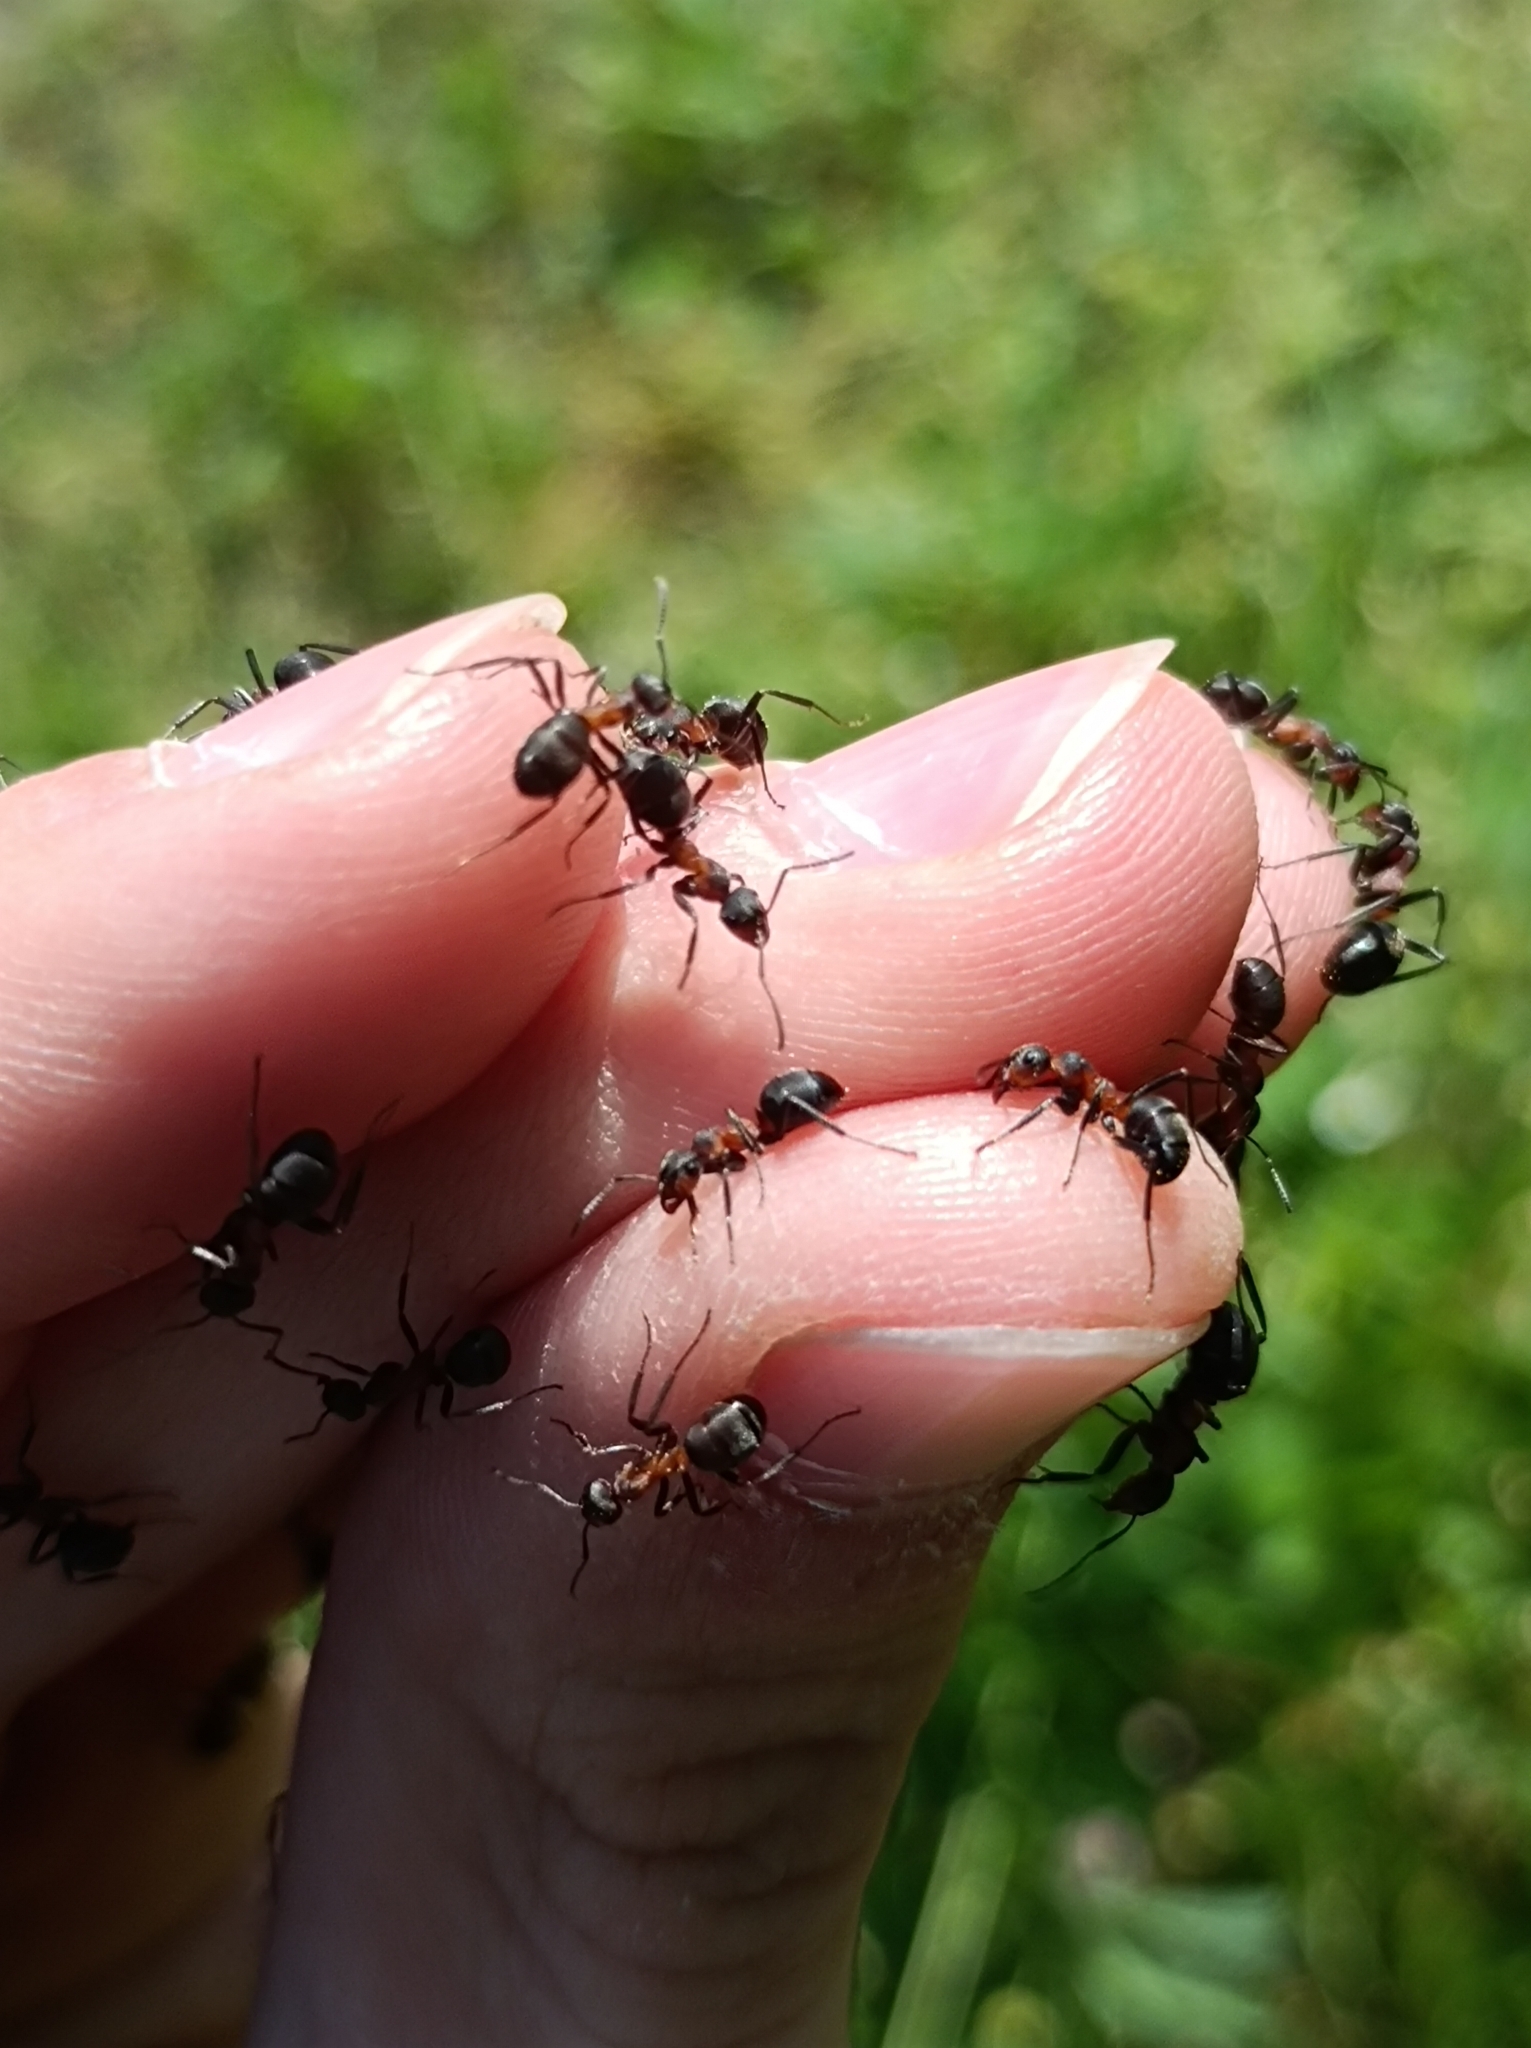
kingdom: Animalia
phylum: Arthropoda
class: Insecta
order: Hymenoptera
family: Formicidae
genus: Formica
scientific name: Formica pratensis
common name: European red wood ant
